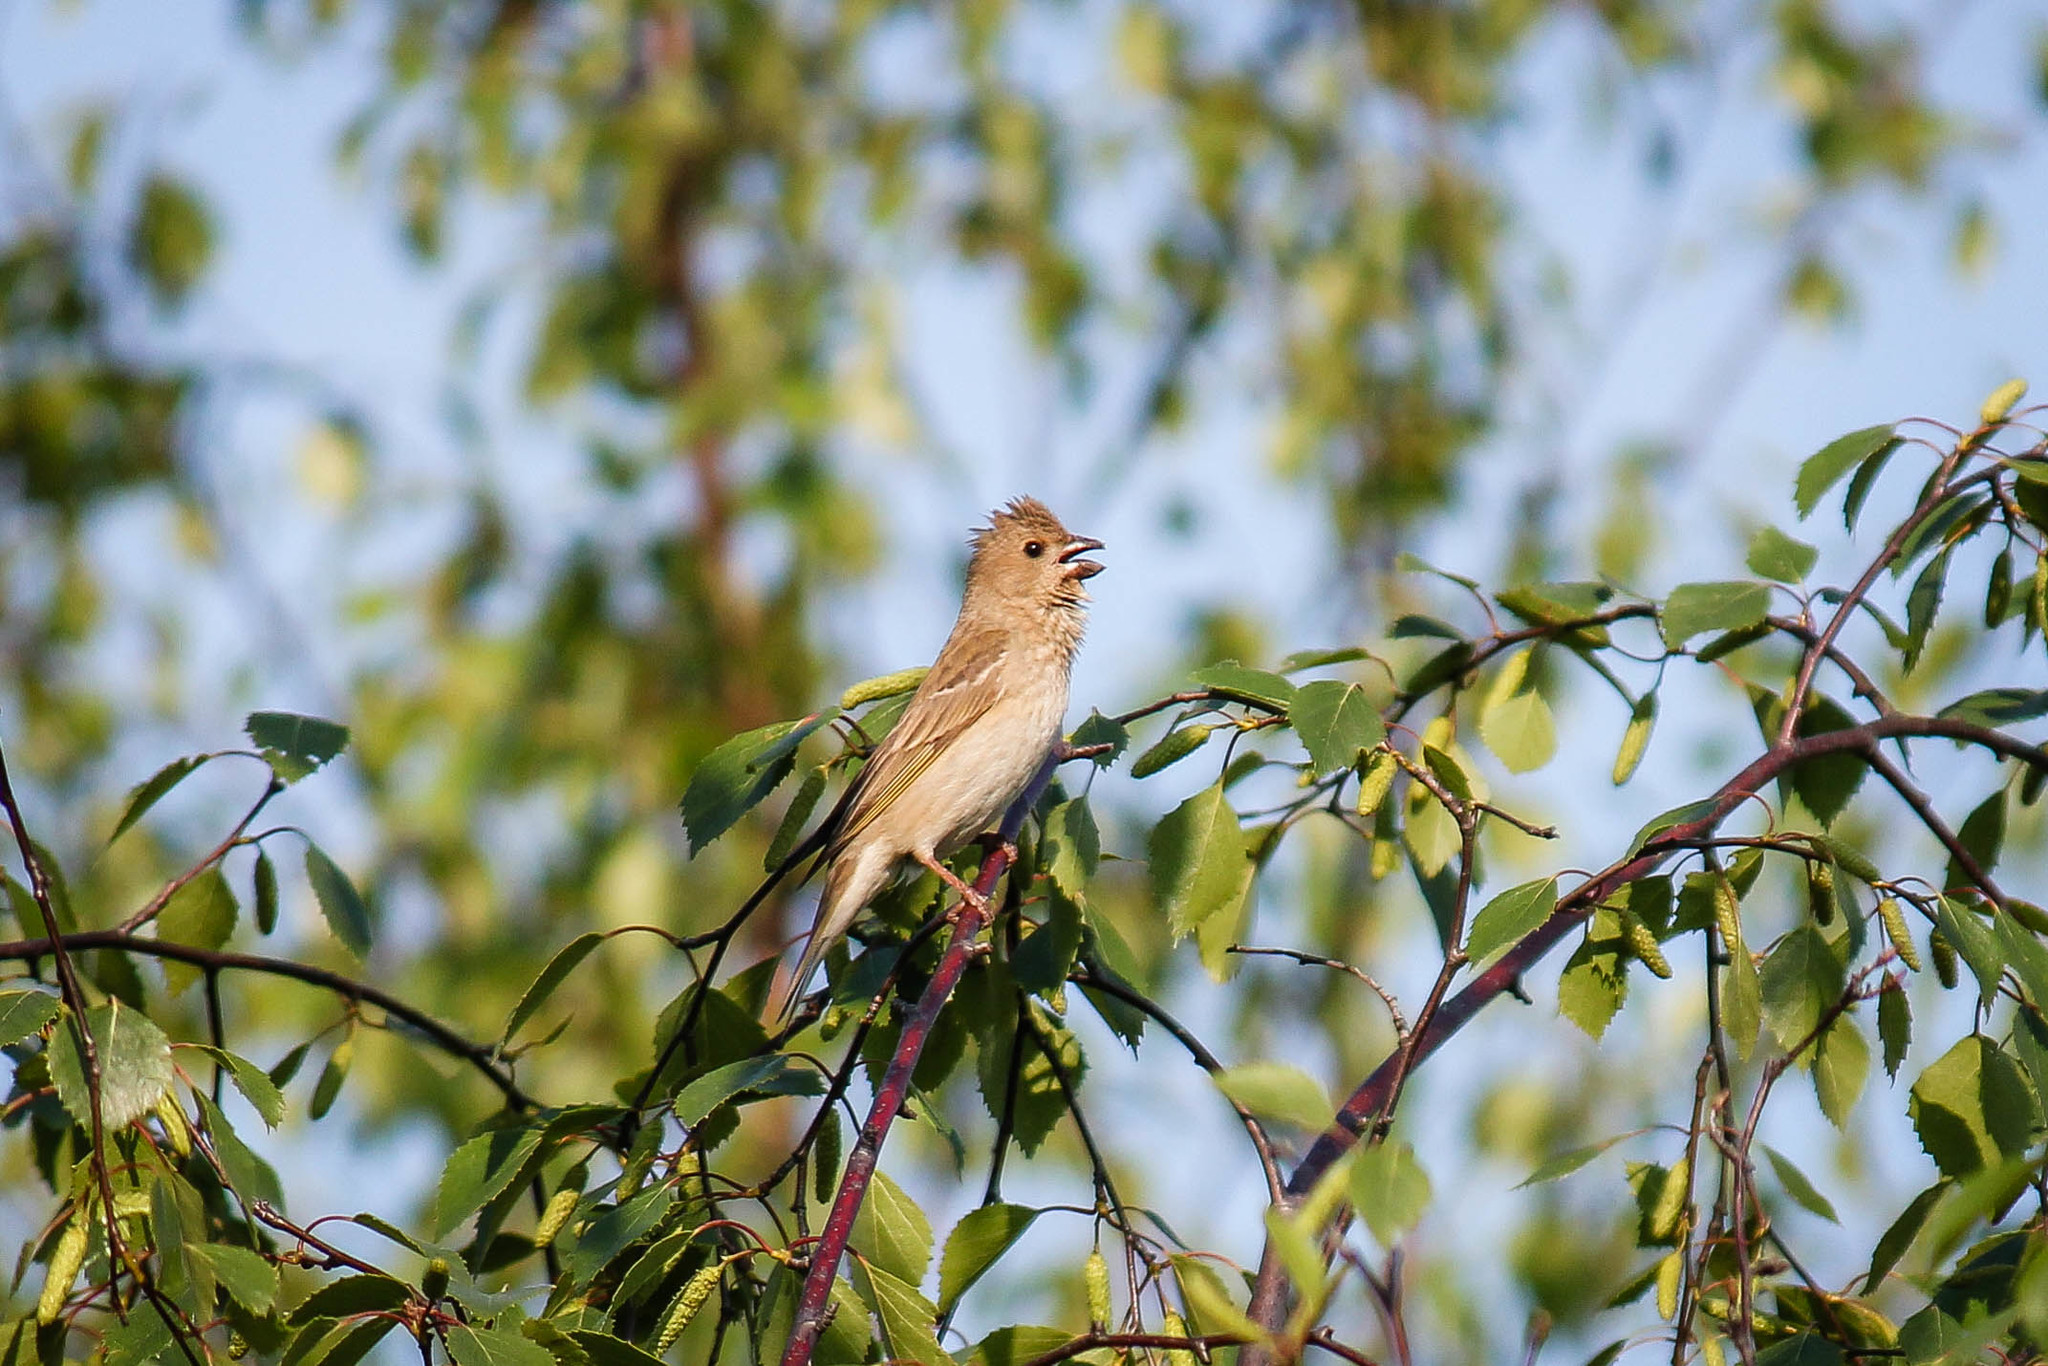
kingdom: Animalia
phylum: Chordata
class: Aves
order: Passeriformes
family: Fringillidae
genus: Carpodacus
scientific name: Carpodacus erythrinus
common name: Common rosefinch
